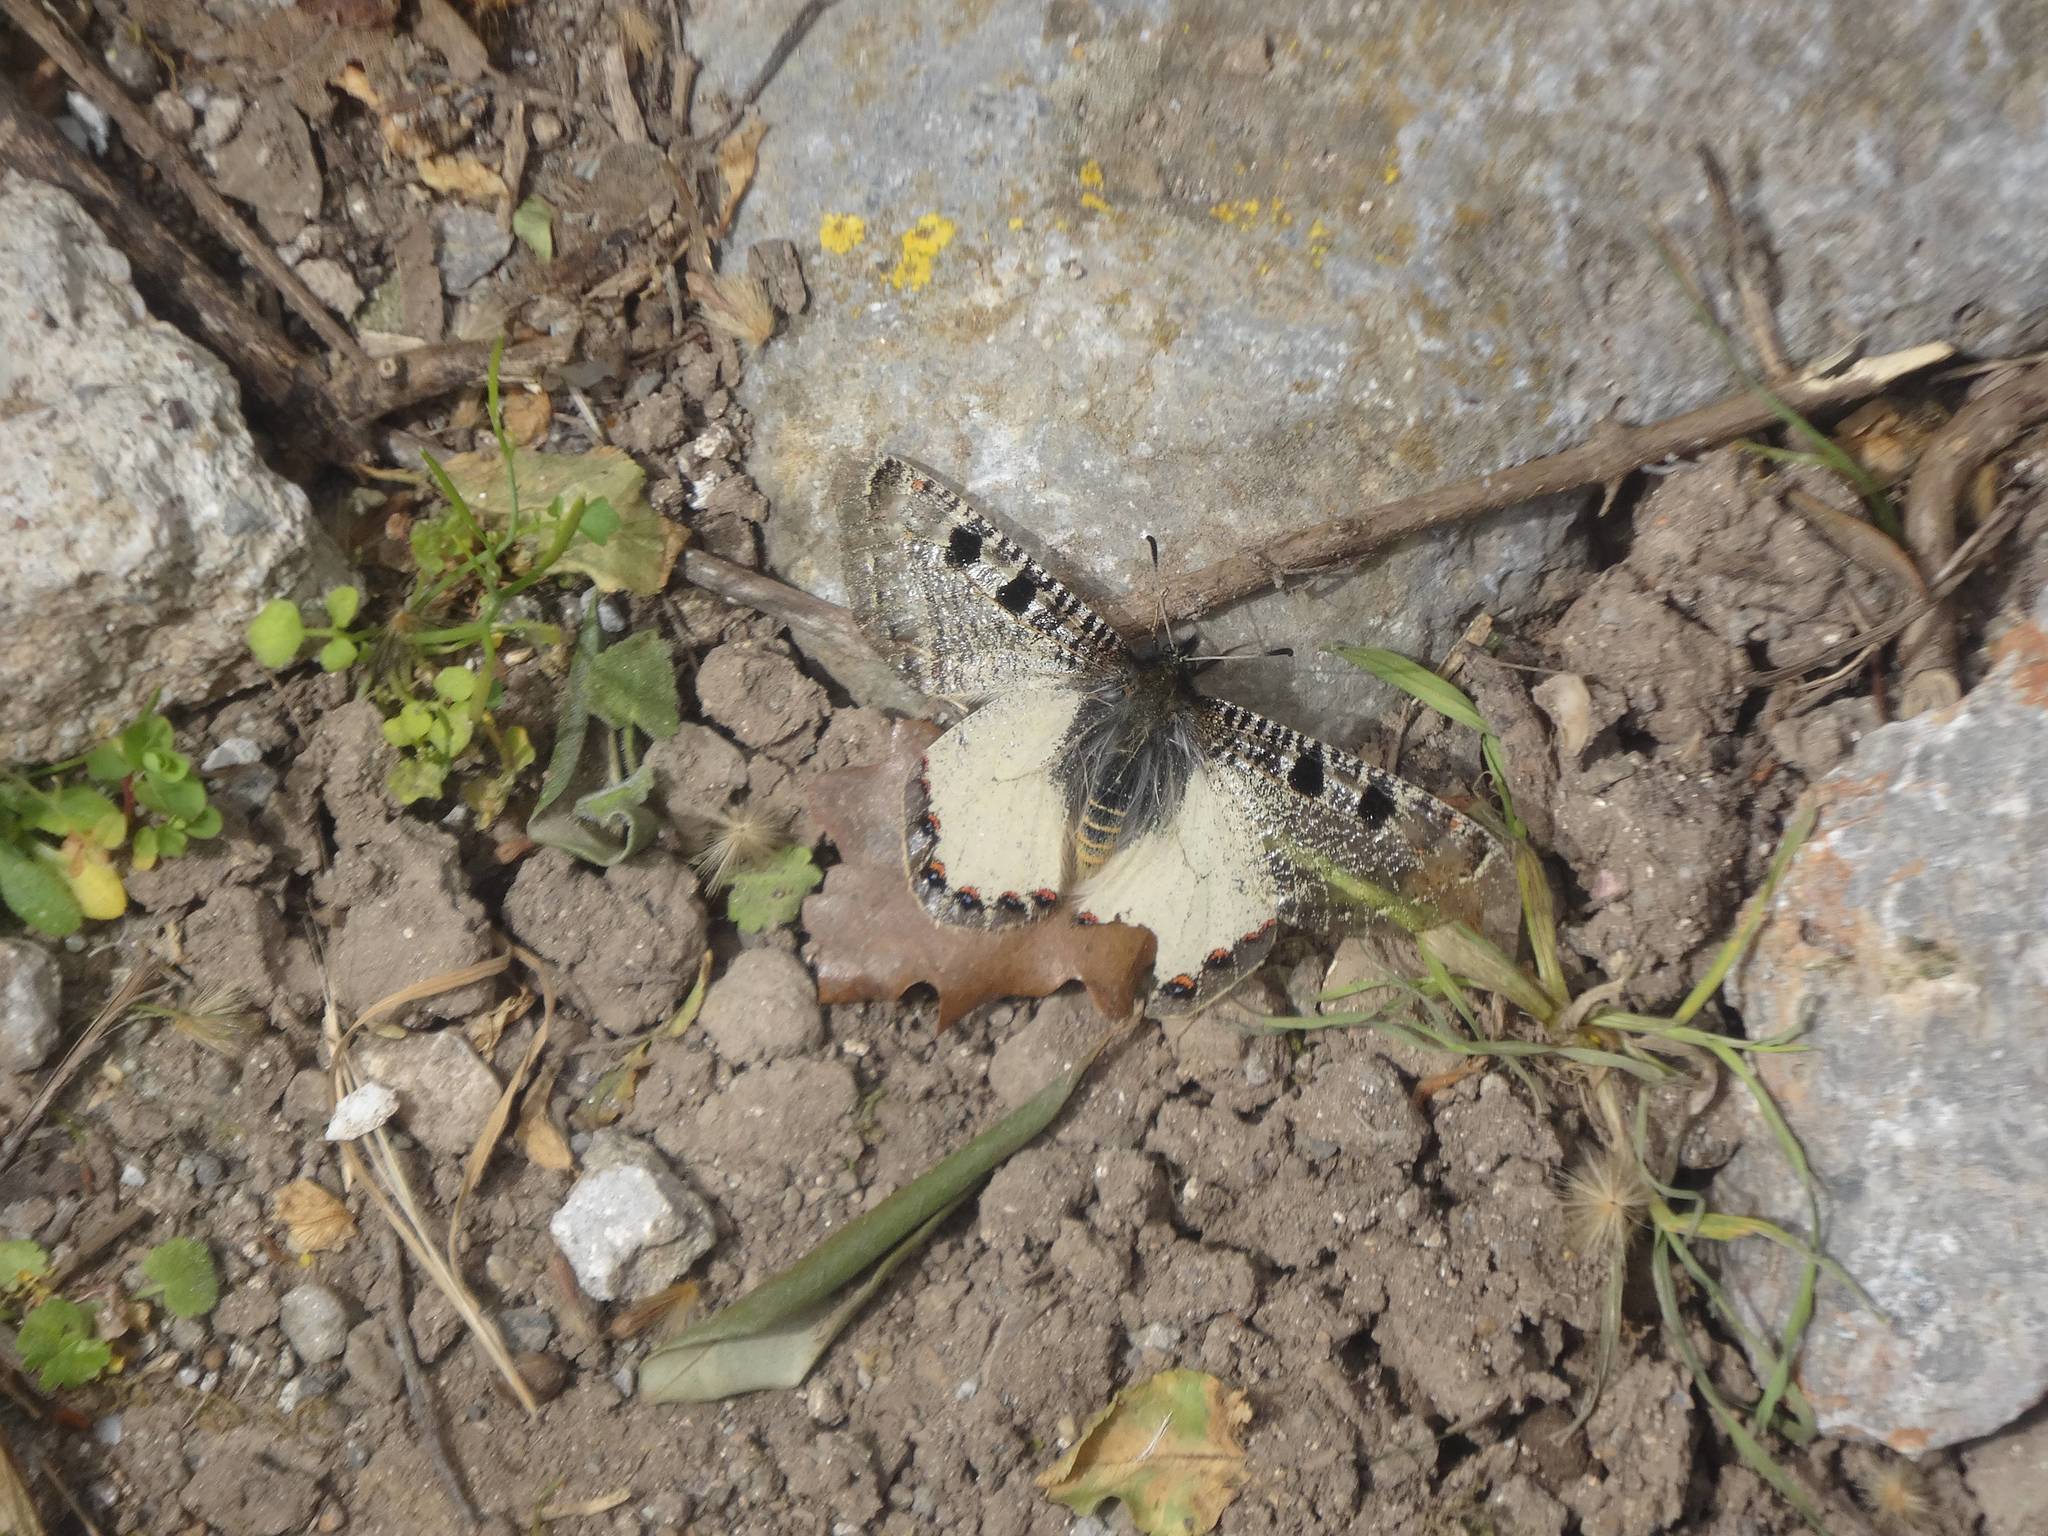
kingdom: Animalia
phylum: Arthropoda
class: Insecta
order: Lepidoptera
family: Papilionidae
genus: Archon
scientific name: Archon apollinus
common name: False apollo
